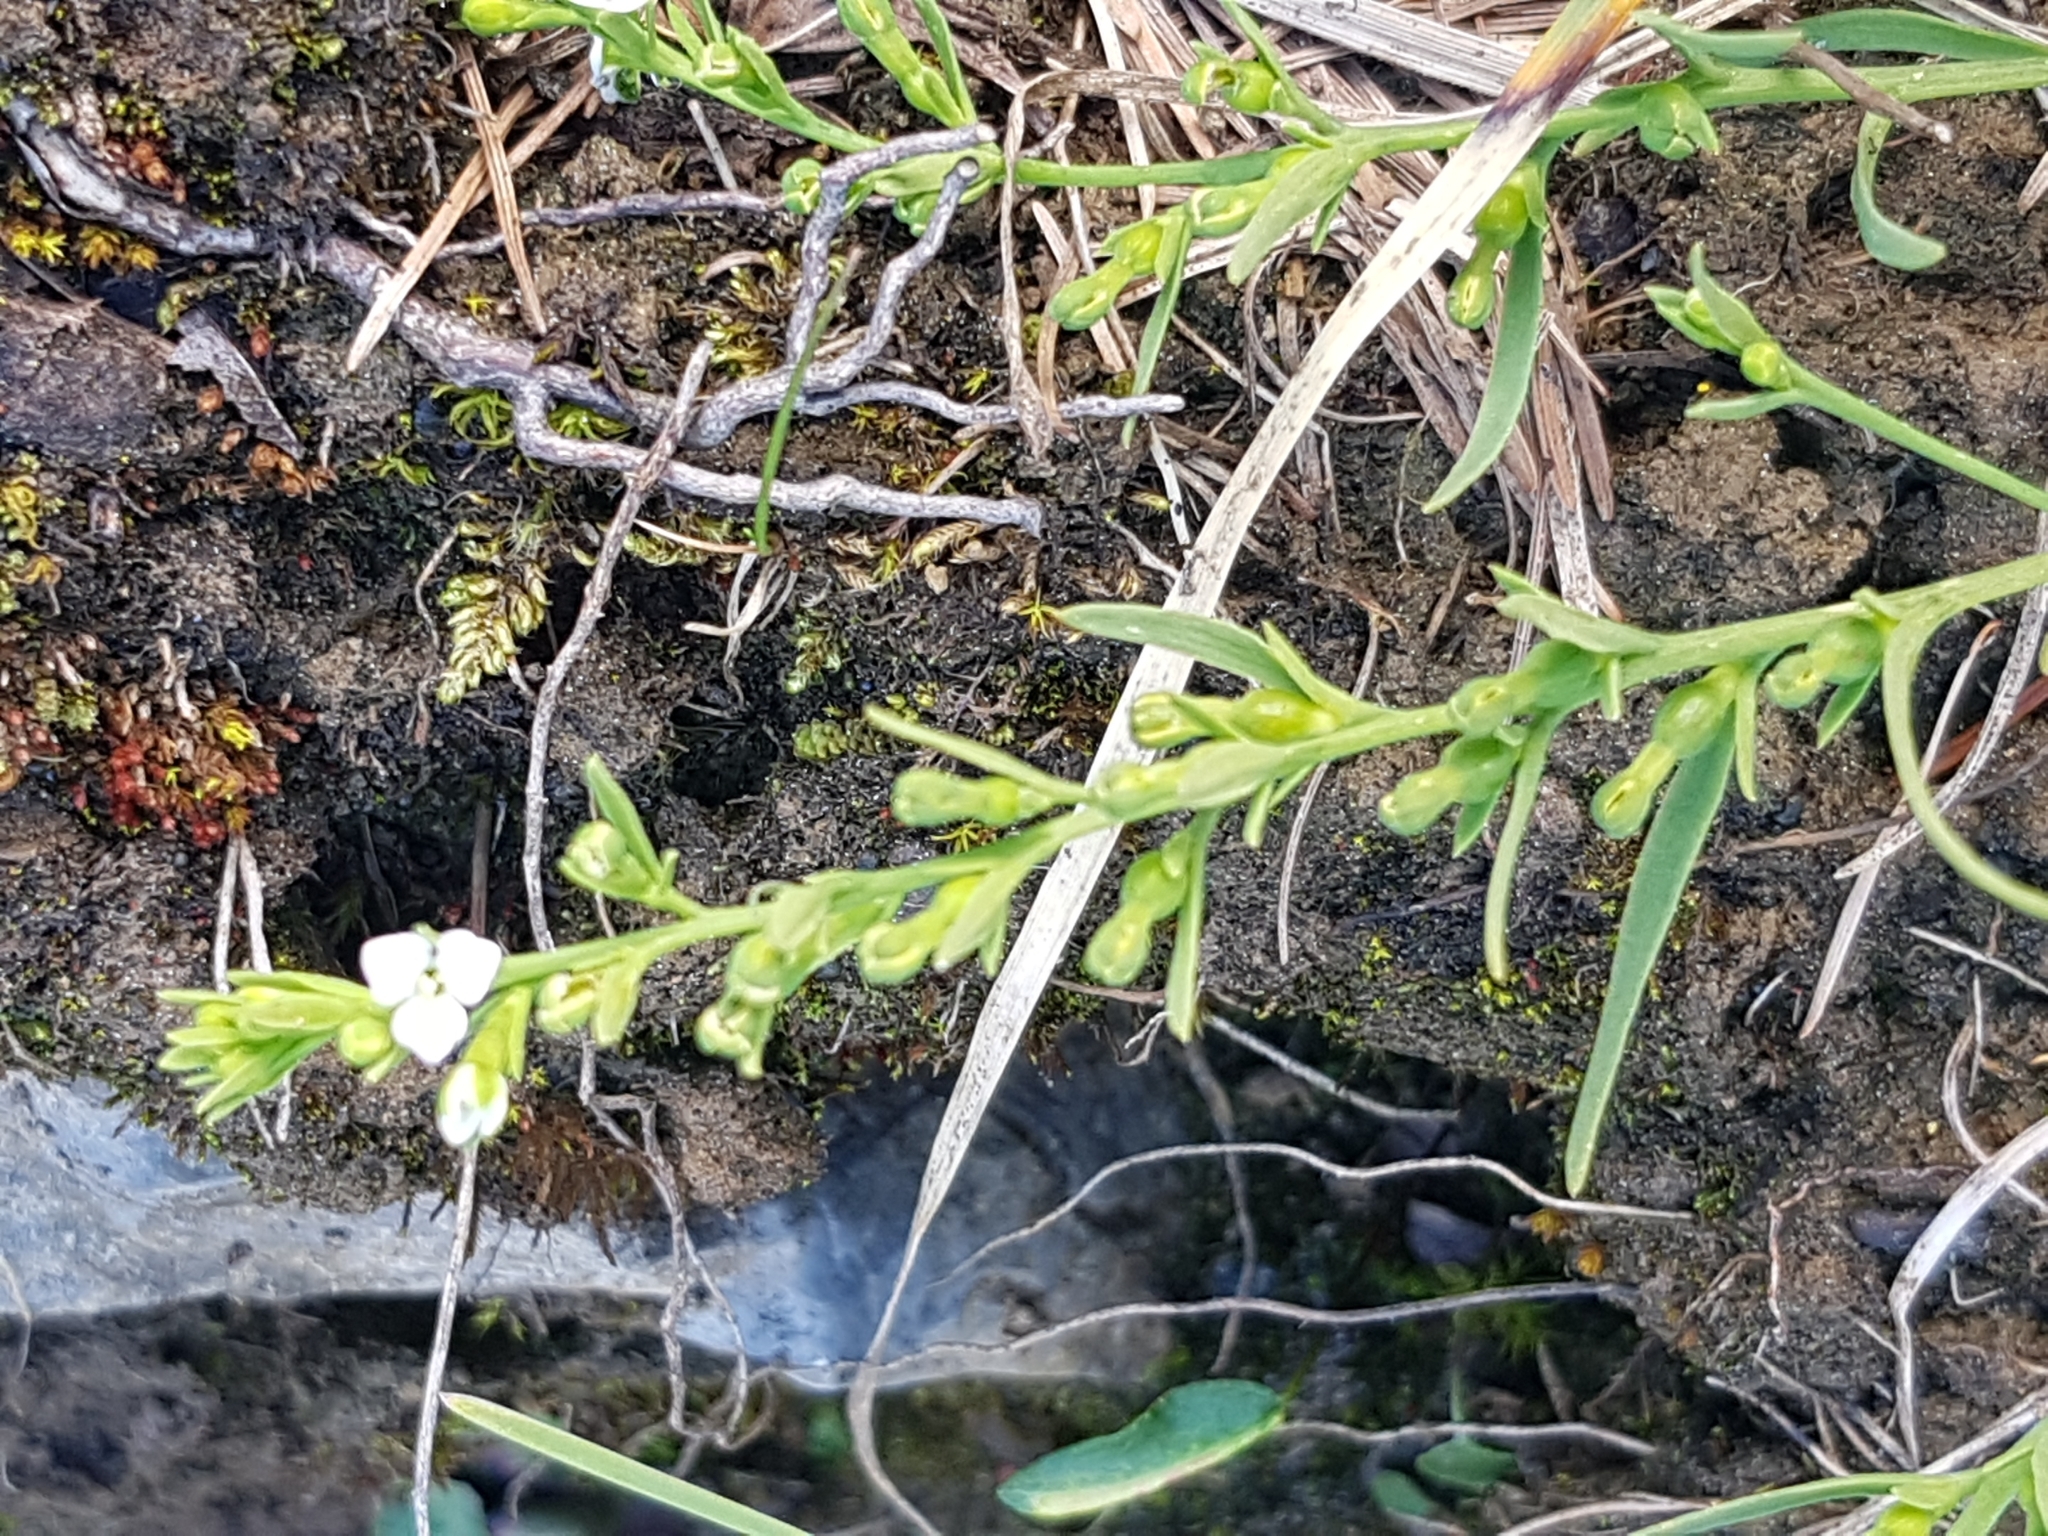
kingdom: Plantae
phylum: Tracheophyta
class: Magnoliopsida
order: Santalales
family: Thesiaceae
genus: Thesium
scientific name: Thesium alpinum
